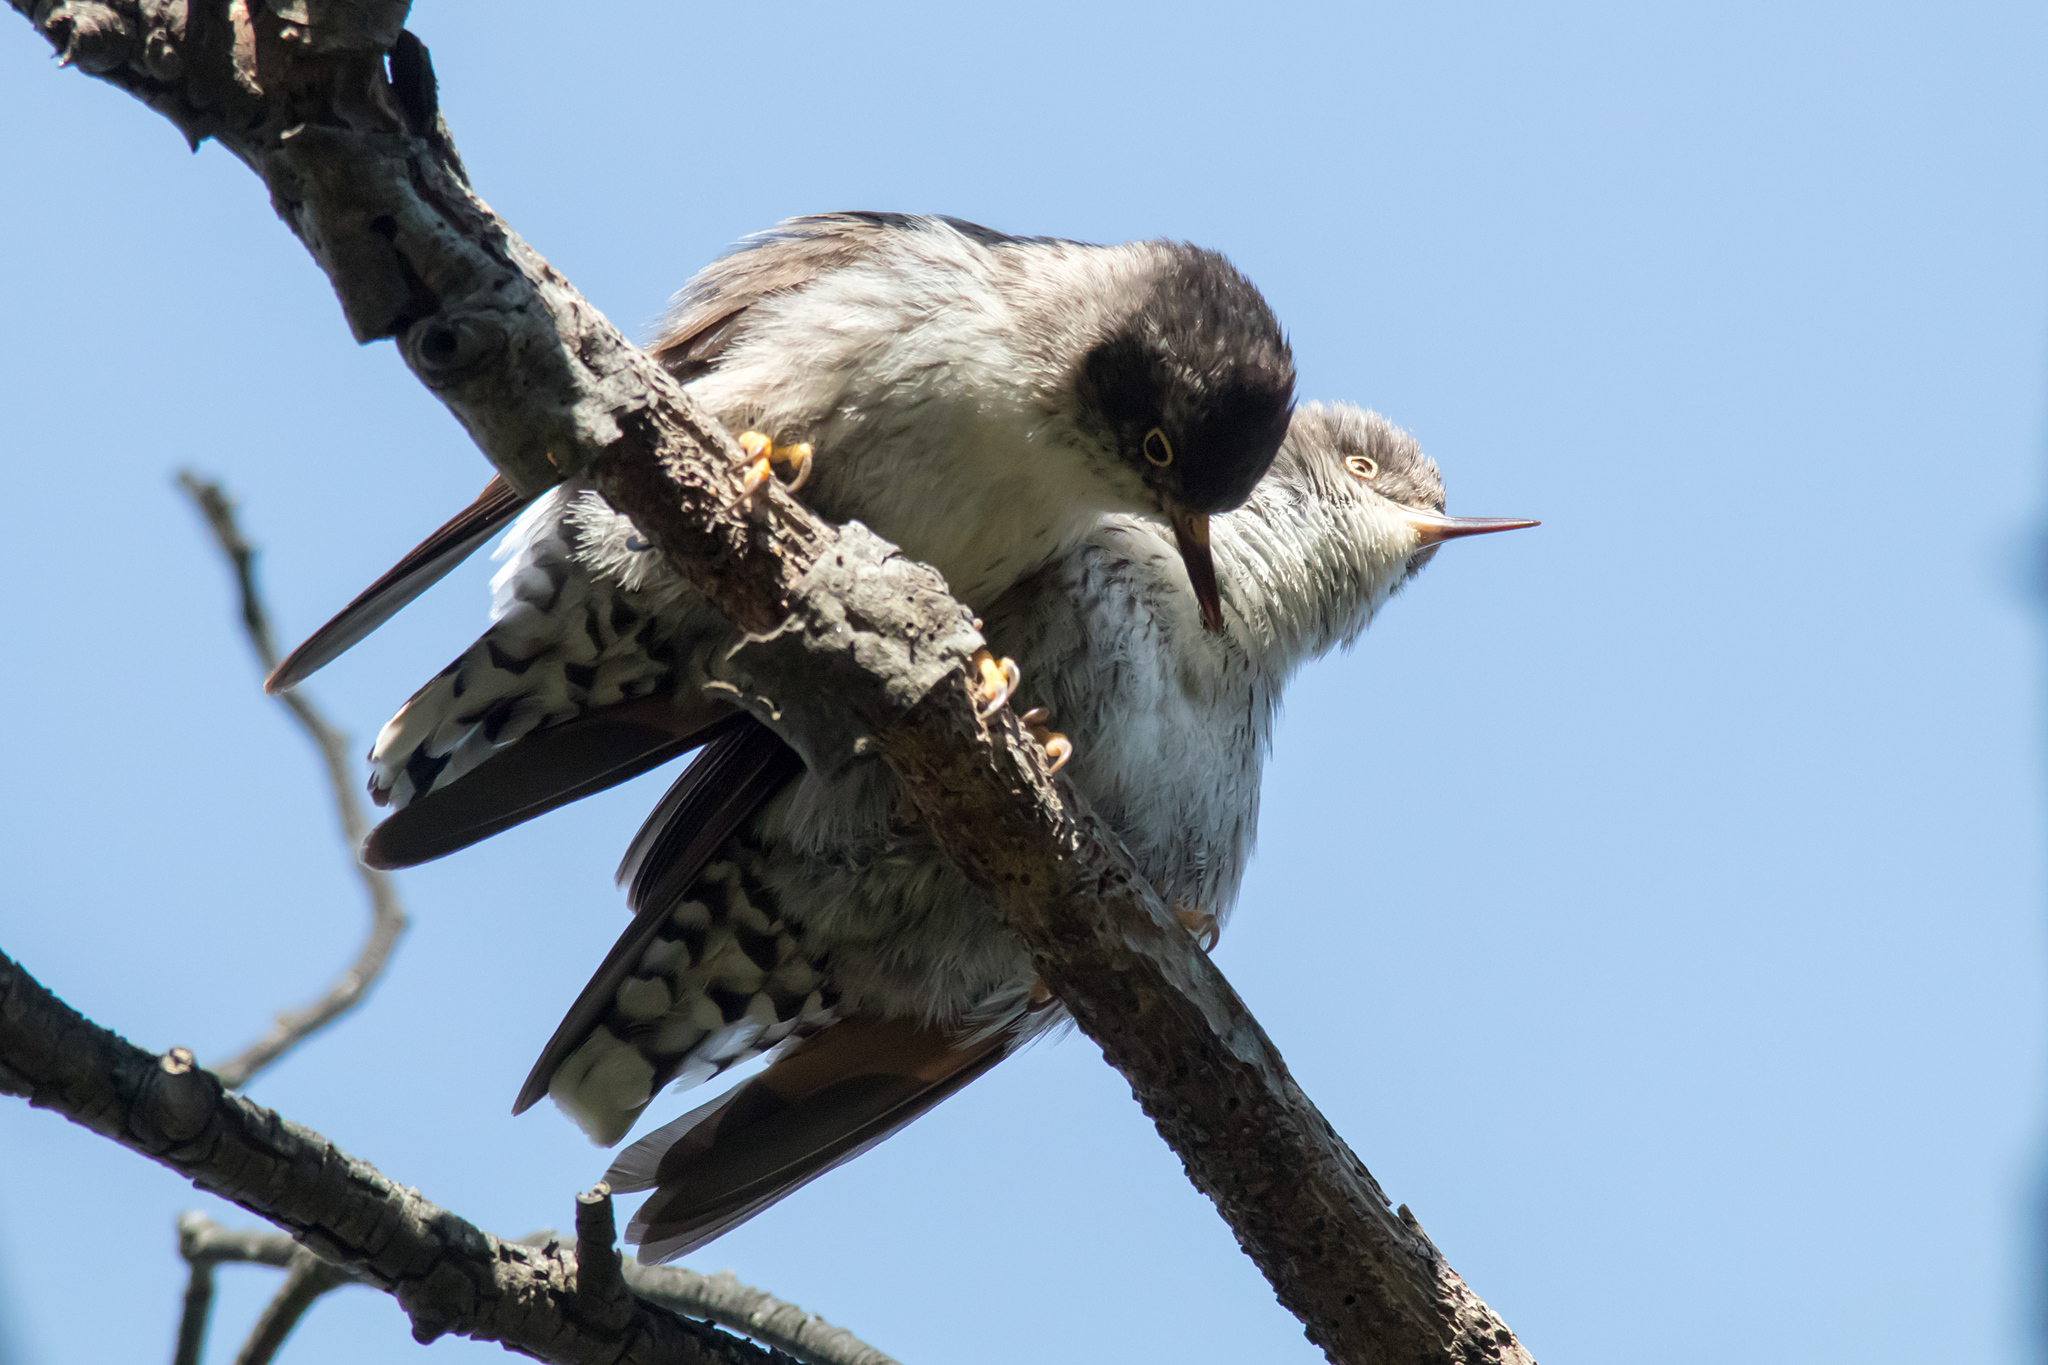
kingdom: Animalia
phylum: Chordata
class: Aves
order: Passeriformes
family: Neosittidae
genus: Daphoenositta
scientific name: Daphoenositta chrysoptera
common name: Varied sittella
